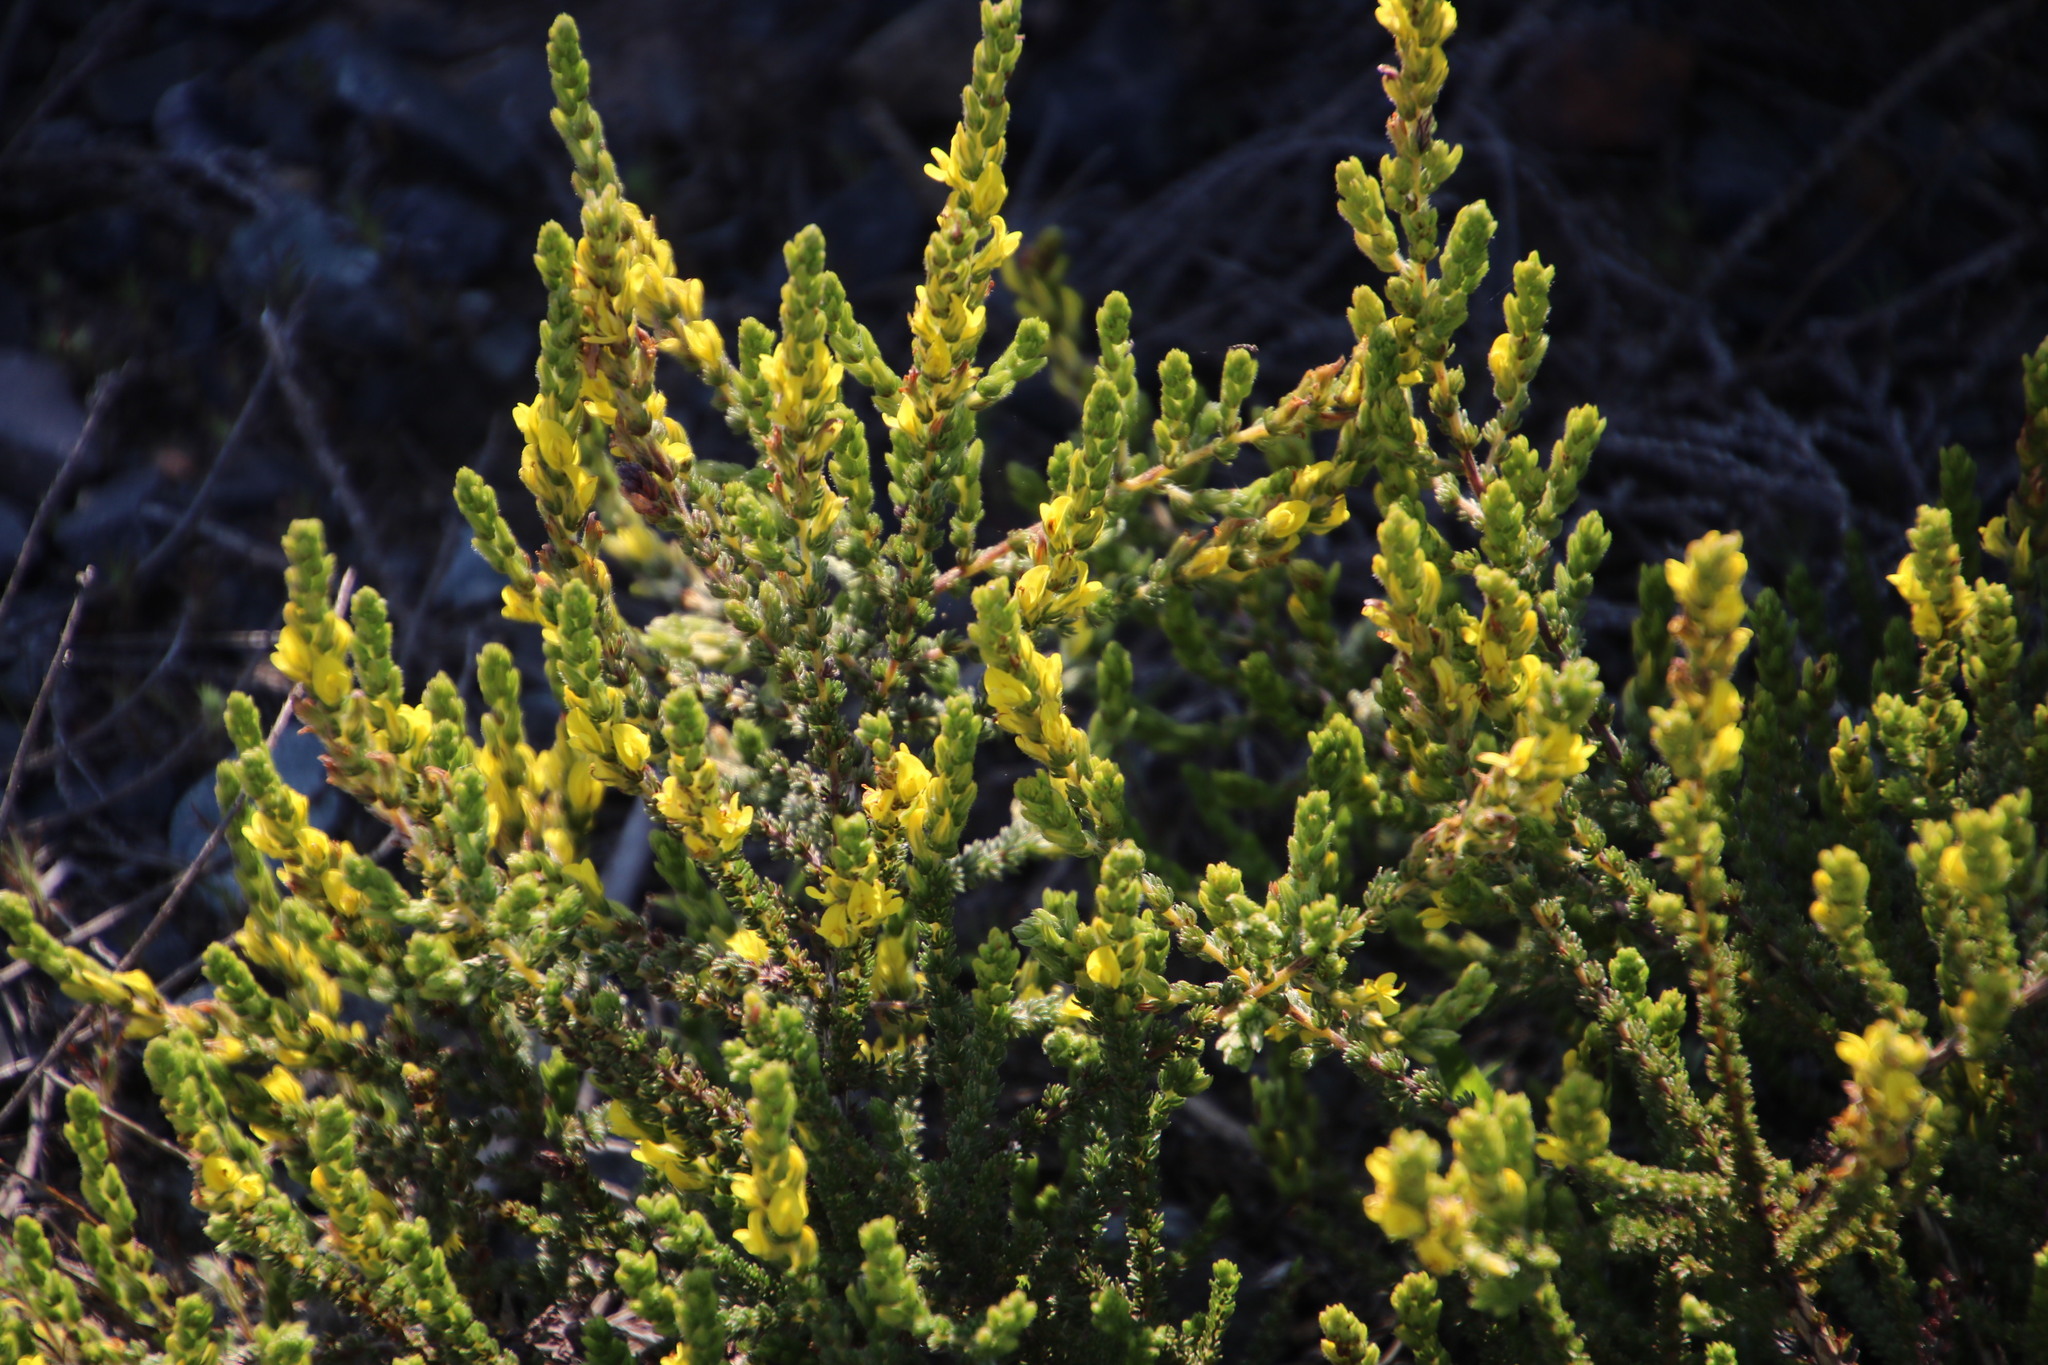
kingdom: Plantae
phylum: Tracheophyta
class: Magnoliopsida
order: Fabales
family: Fabaceae
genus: Aspalathus
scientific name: Aspalathus ericifolia
